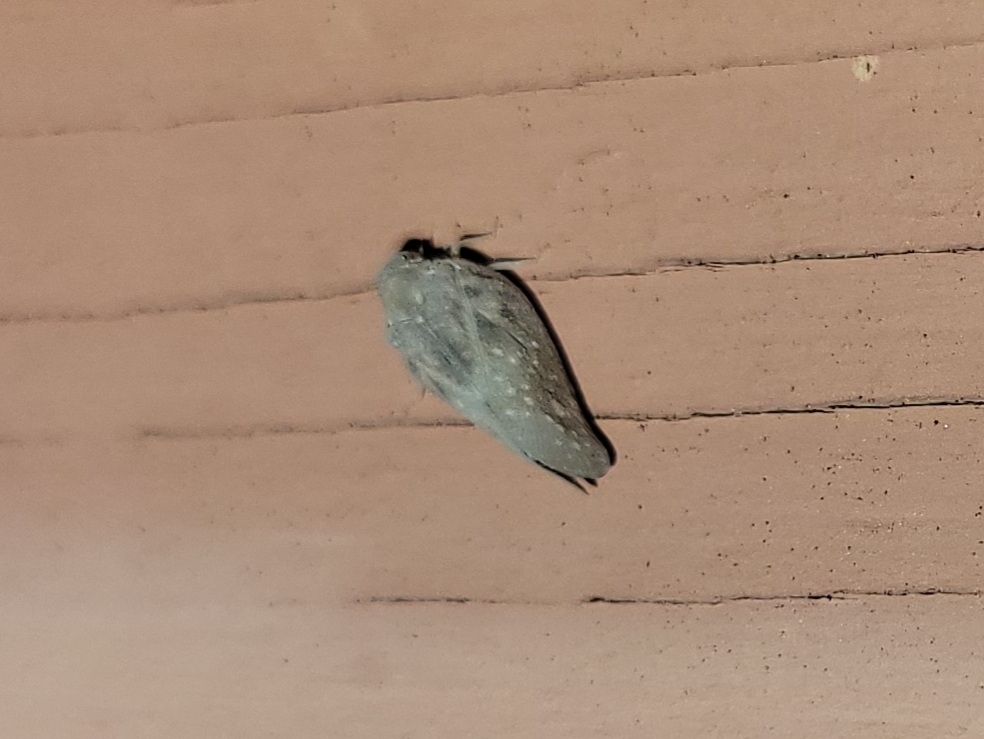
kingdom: Animalia
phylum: Arthropoda
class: Insecta
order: Hemiptera
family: Flatidae
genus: Metcalfa
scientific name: Metcalfa pruinosa
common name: Citrus flatid planthopper
